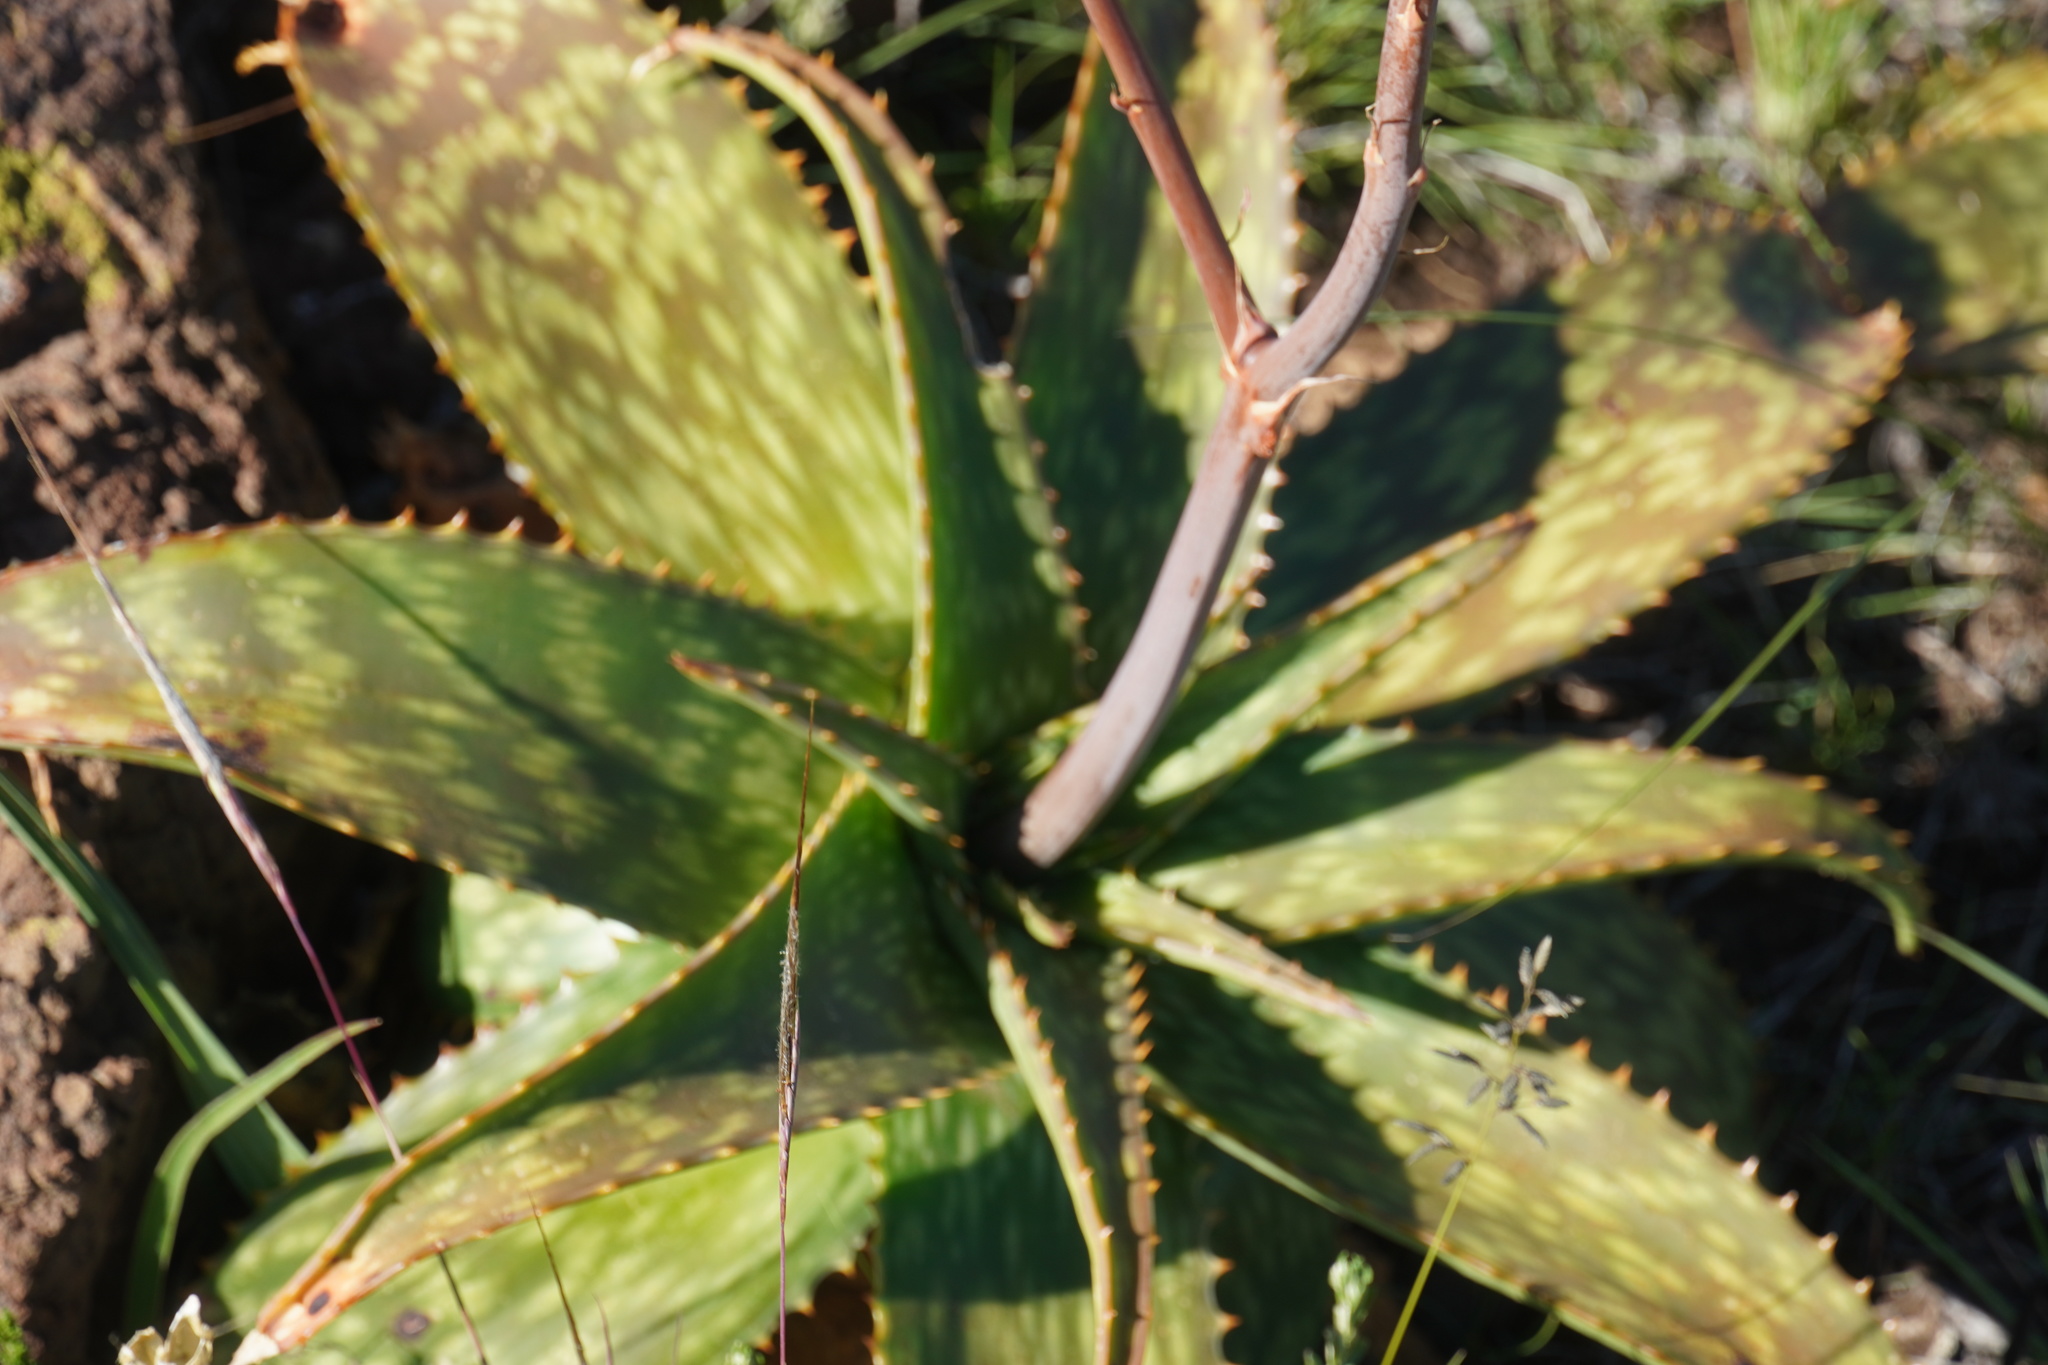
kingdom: Plantae
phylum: Tracheophyta
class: Liliopsida
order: Asparagales
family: Asphodelaceae
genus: Aloe
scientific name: Aloe maculata
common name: Broadleaf aloe
